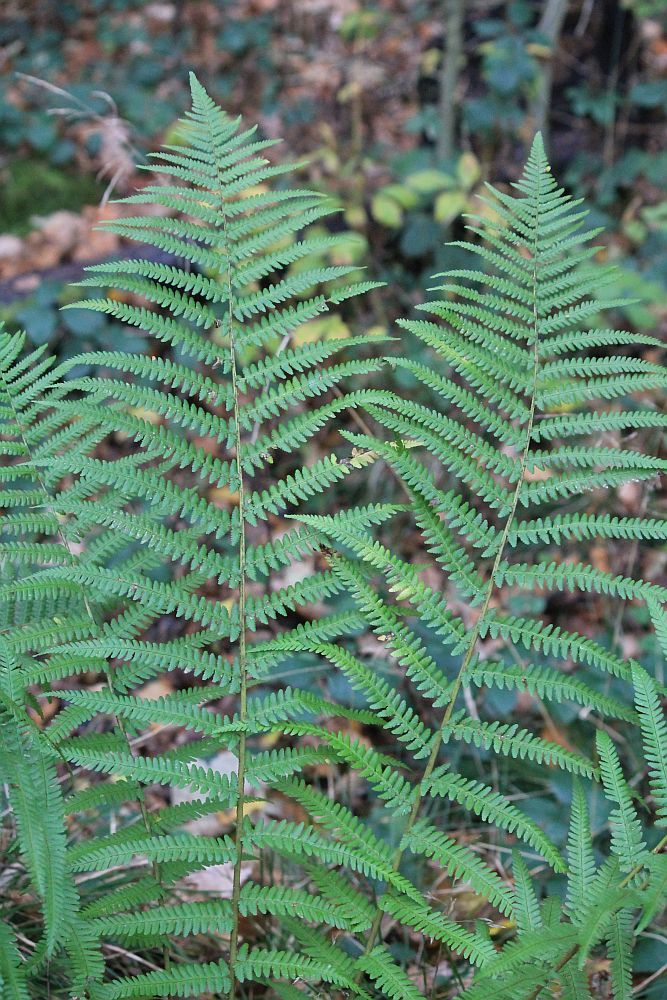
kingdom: Plantae
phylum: Tracheophyta
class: Polypodiopsida
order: Polypodiales
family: Dryopteridaceae
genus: Dryopteris
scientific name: Dryopteris filix-mas
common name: Male fern
